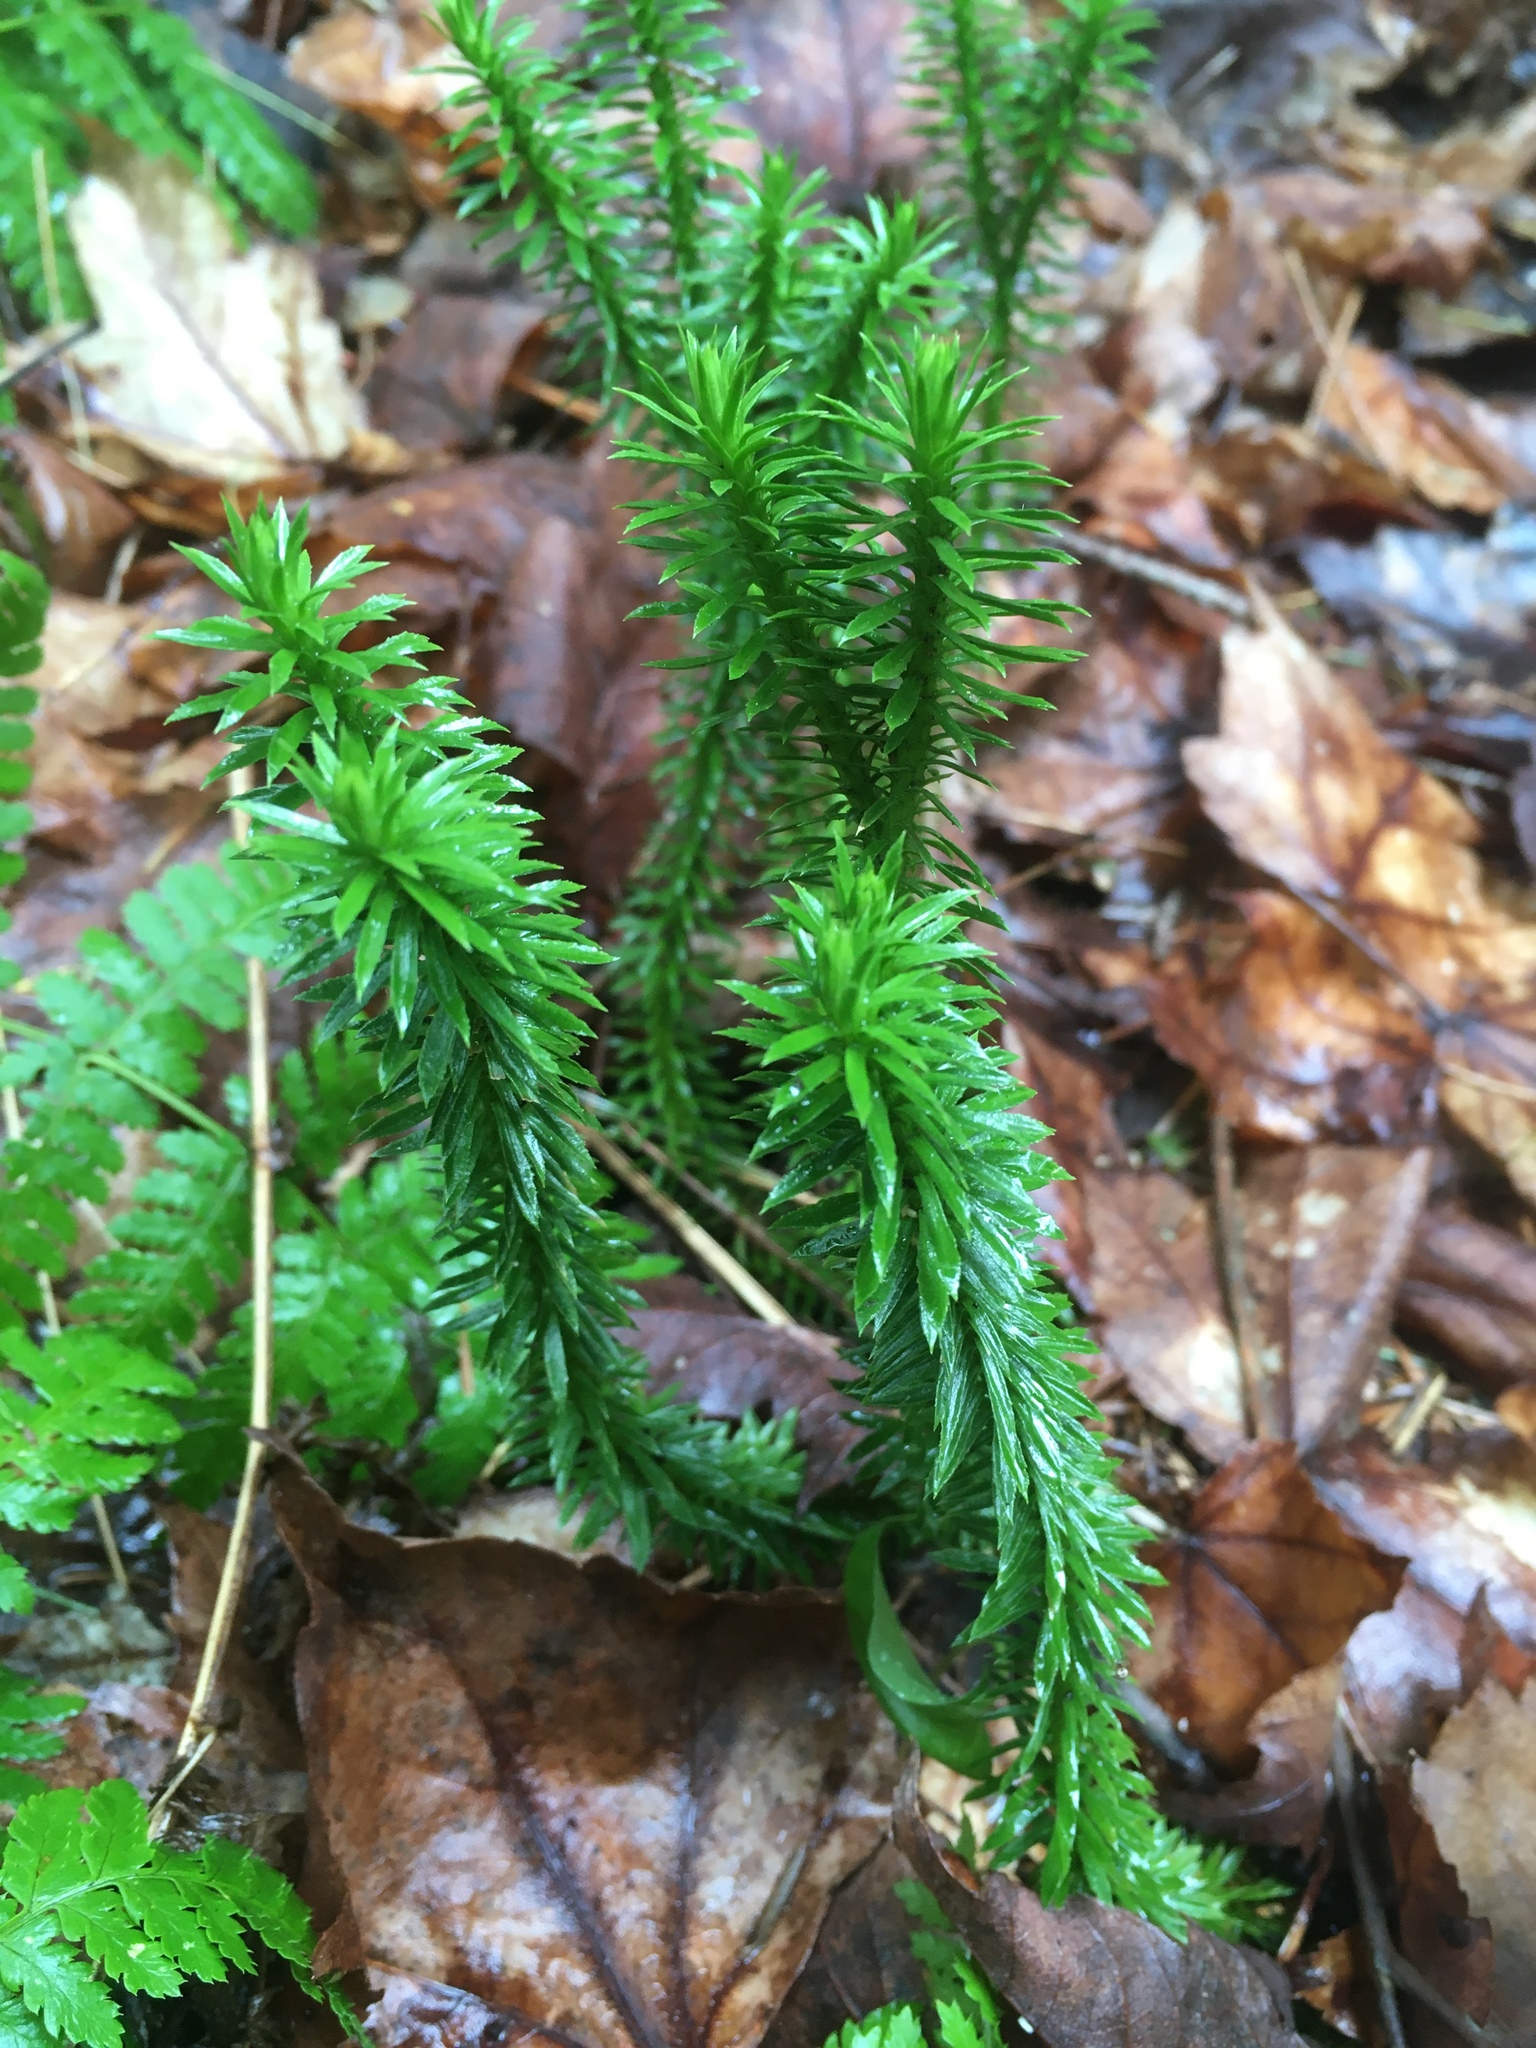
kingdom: Plantae
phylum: Tracheophyta
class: Lycopodiopsida
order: Lycopodiales
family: Lycopodiaceae
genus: Huperzia
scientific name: Huperzia lucidula
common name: Shining clubmoss
